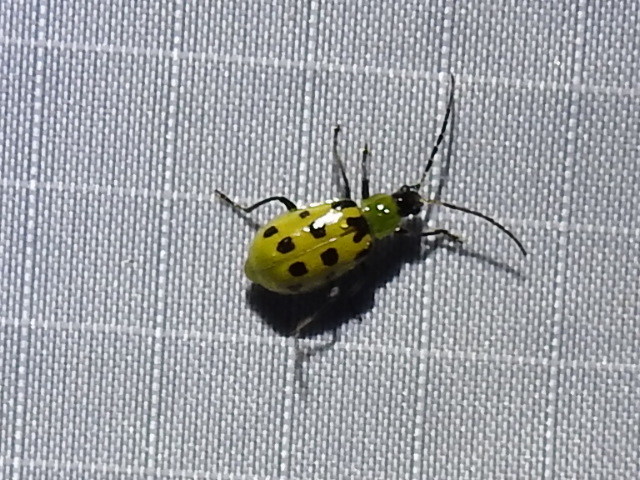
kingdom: Animalia
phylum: Arthropoda
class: Insecta
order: Coleoptera
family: Chrysomelidae
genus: Diabrotica
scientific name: Diabrotica undecimpunctata
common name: Spotted cucumber beetle
